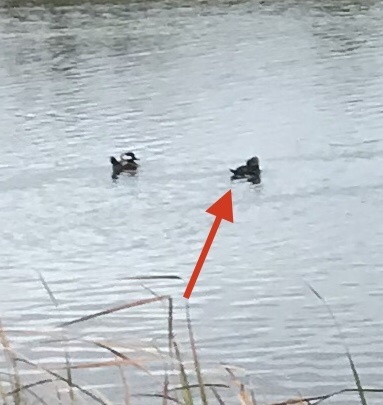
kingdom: Animalia
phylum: Chordata
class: Aves
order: Anseriformes
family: Anatidae
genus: Lophodytes
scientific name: Lophodytes cucullatus
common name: Hooded merganser
